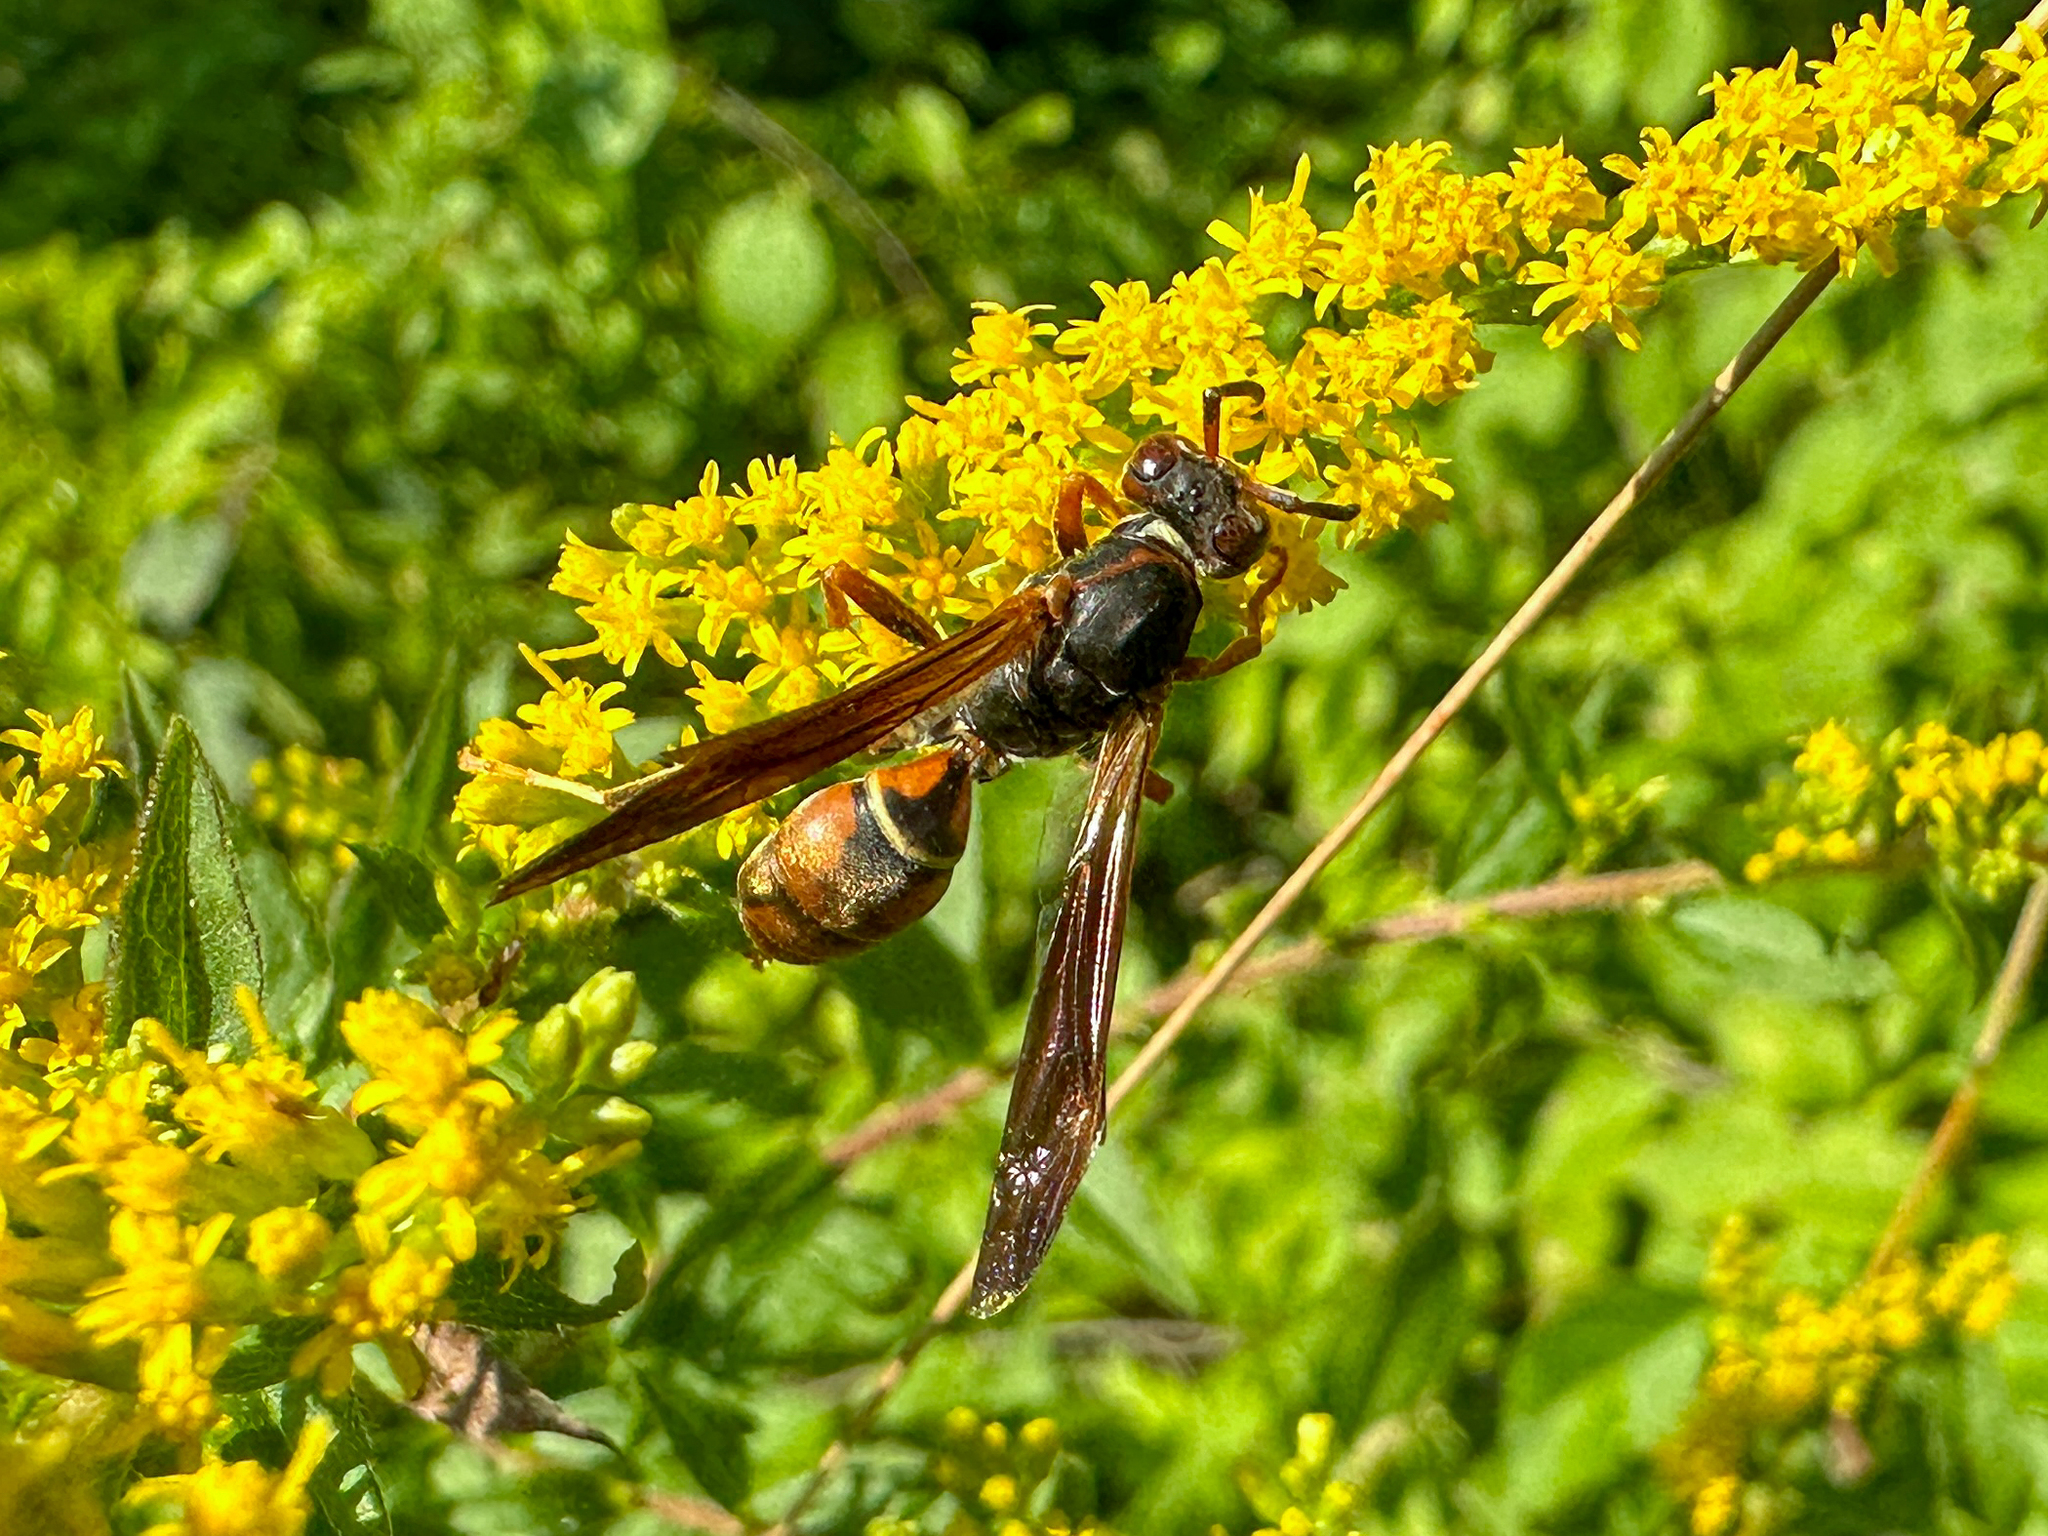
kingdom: Animalia
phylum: Arthropoda
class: Insecta
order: Hymenoptera
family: Eumenidae
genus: Polistes
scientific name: Polistes fuscatus
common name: Dark paper wasp
